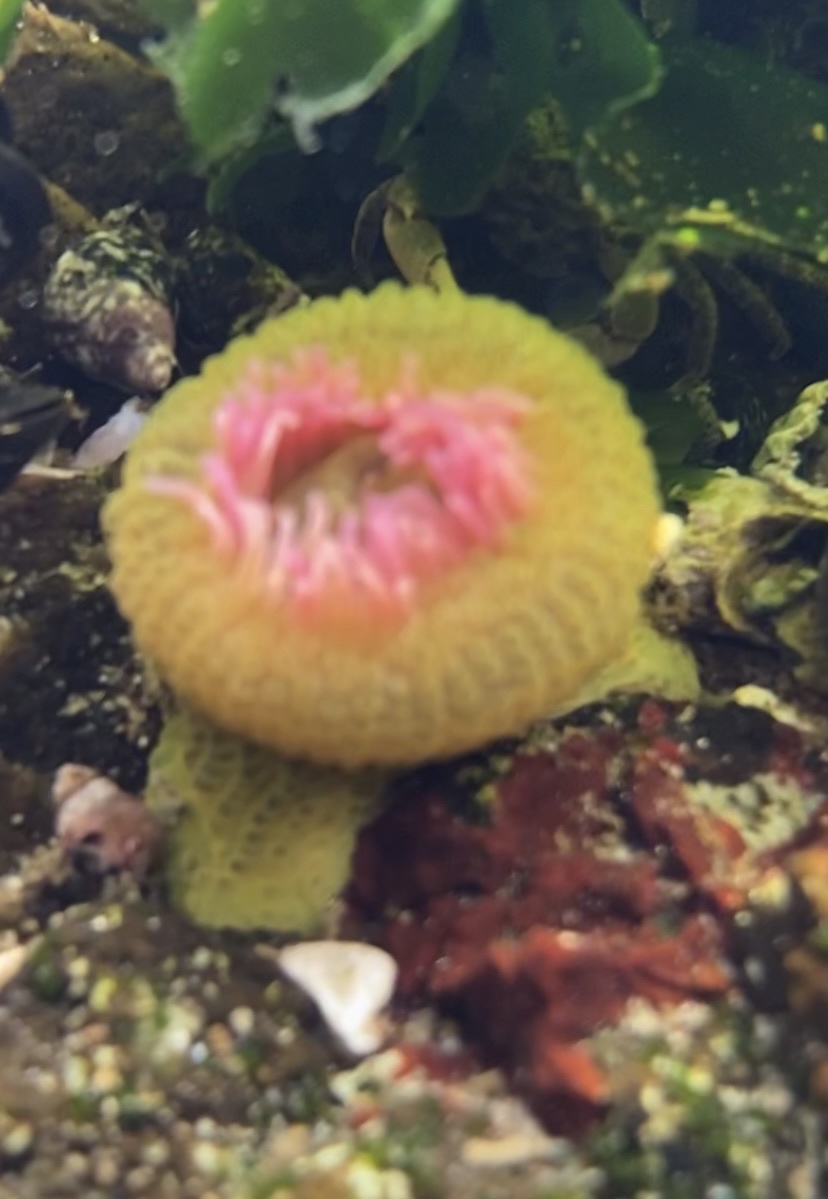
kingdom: Animalia
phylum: Cnidaria
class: Anthozoa
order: Actiniaria
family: Actiniidae
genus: Anthopleura
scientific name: Anthopleura elegantissima
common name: Clonal anemone
